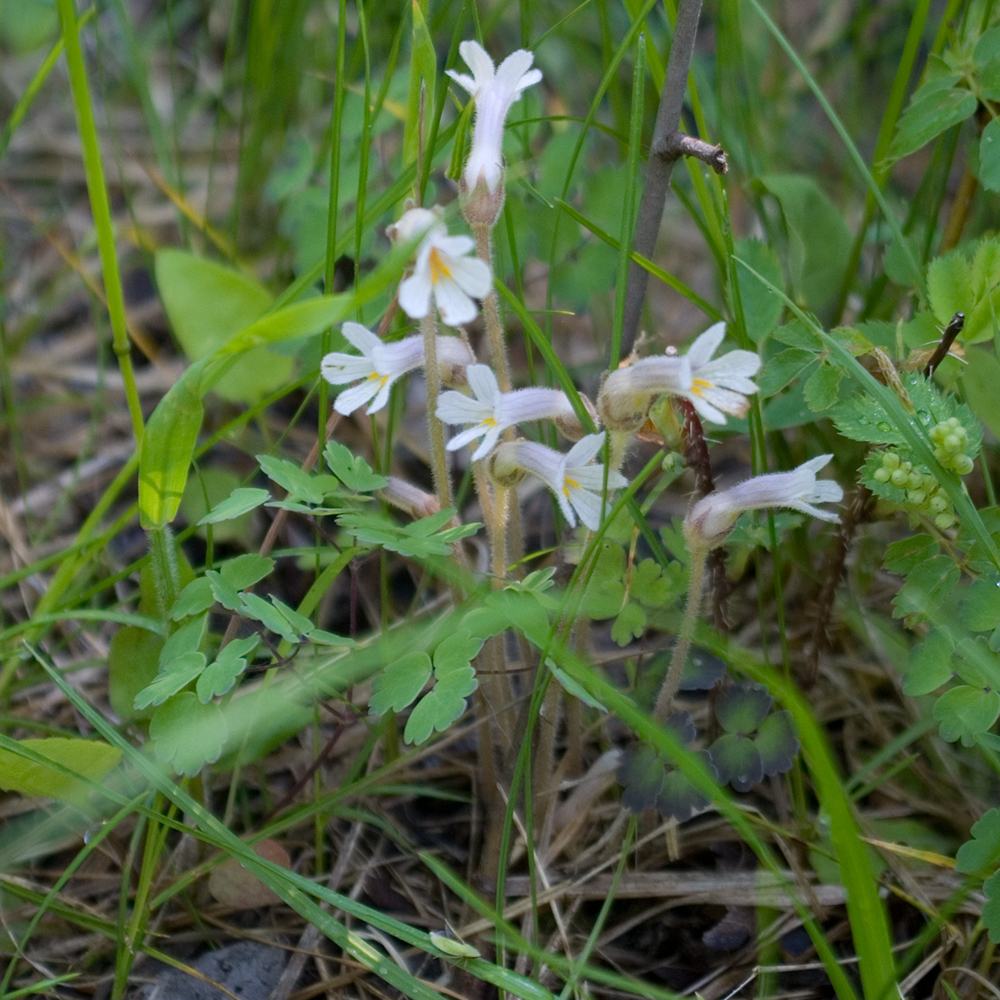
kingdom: Plantae
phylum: Tracheophyta
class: Magnoliopsida
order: Lamiales
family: Orobanchaceae
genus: Aphyllon
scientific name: Aphyllon uniflorum
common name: One-flowered broomrape
